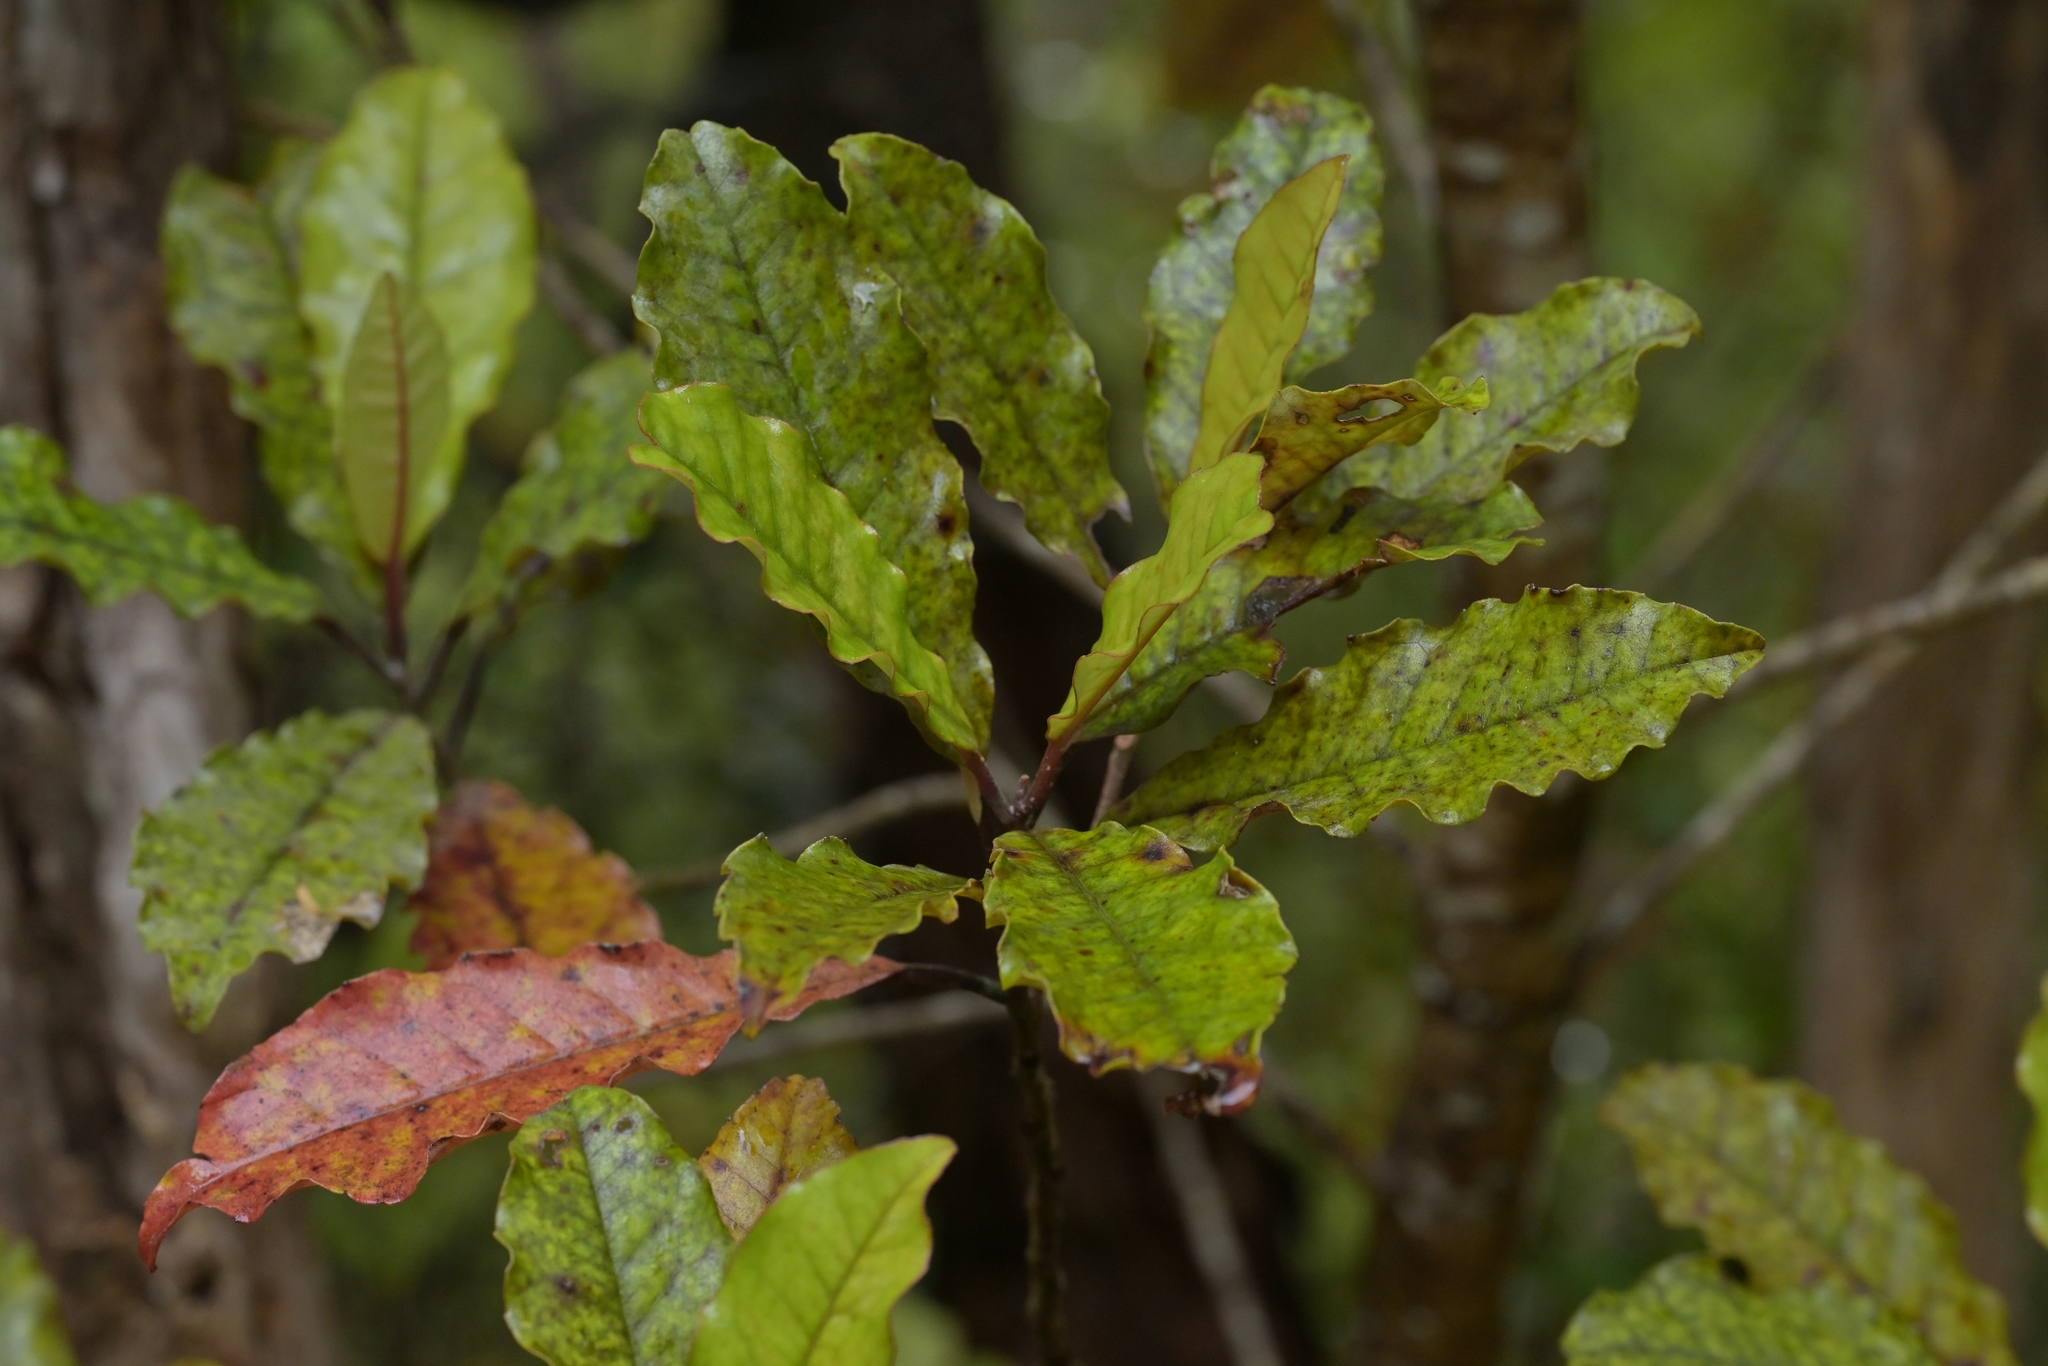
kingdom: Plantae
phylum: Tracheophyta
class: Magnoliopsida
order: Paracryphiales
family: Paracryphiaceae
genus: Quintinia
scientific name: Quintinia serrata
